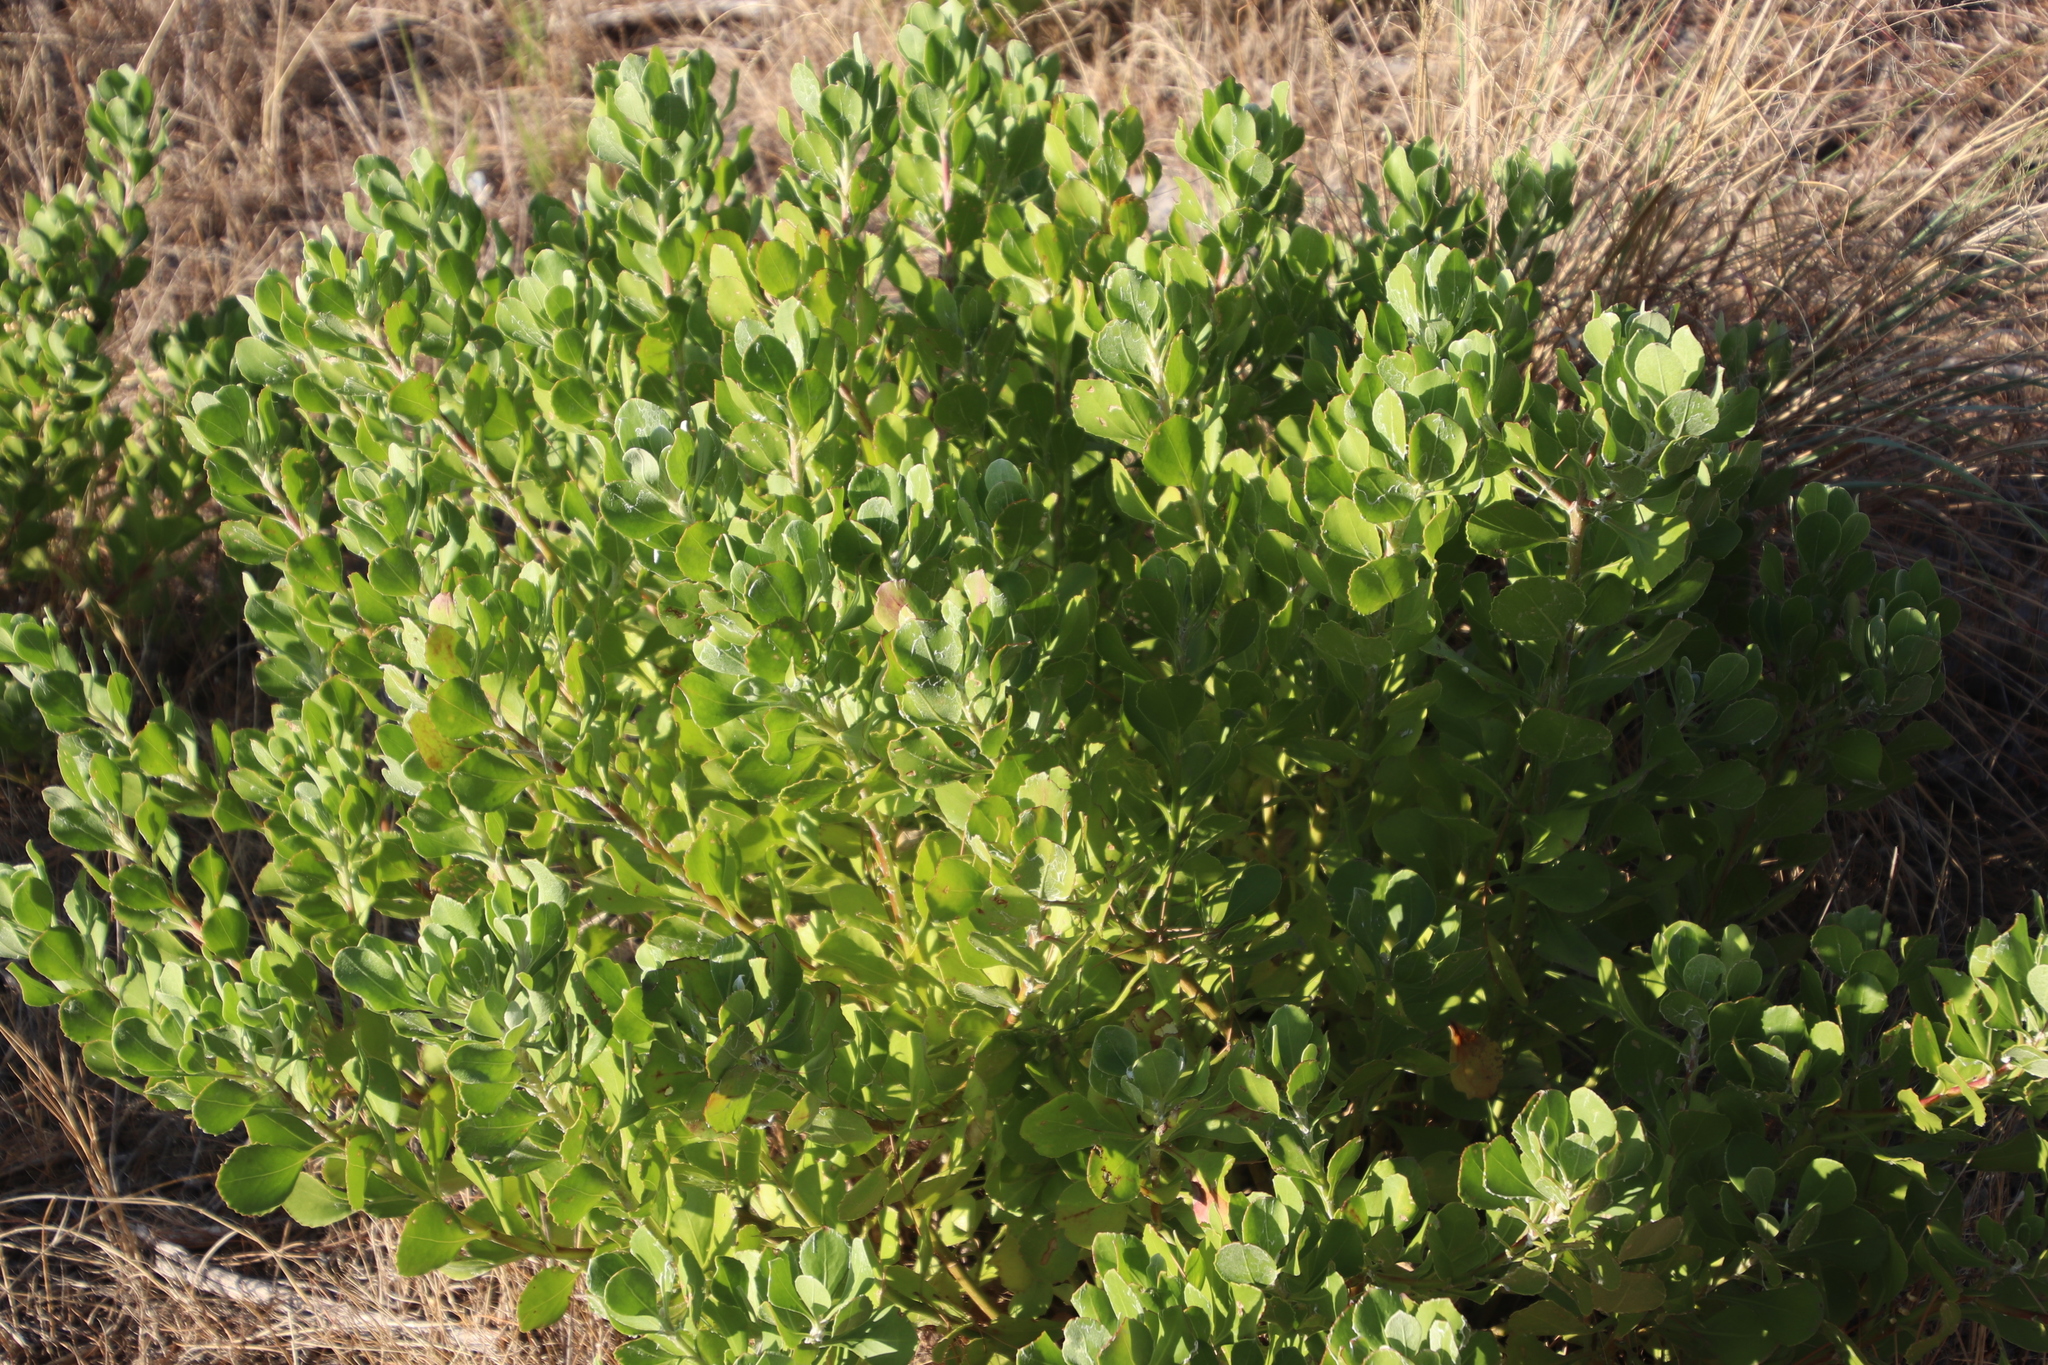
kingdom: Plantae
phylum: Tracheophyta
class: Magnoliopsida
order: Asterales
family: Asteraceae
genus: Osteospermum
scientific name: Osteospermum moniliferum
